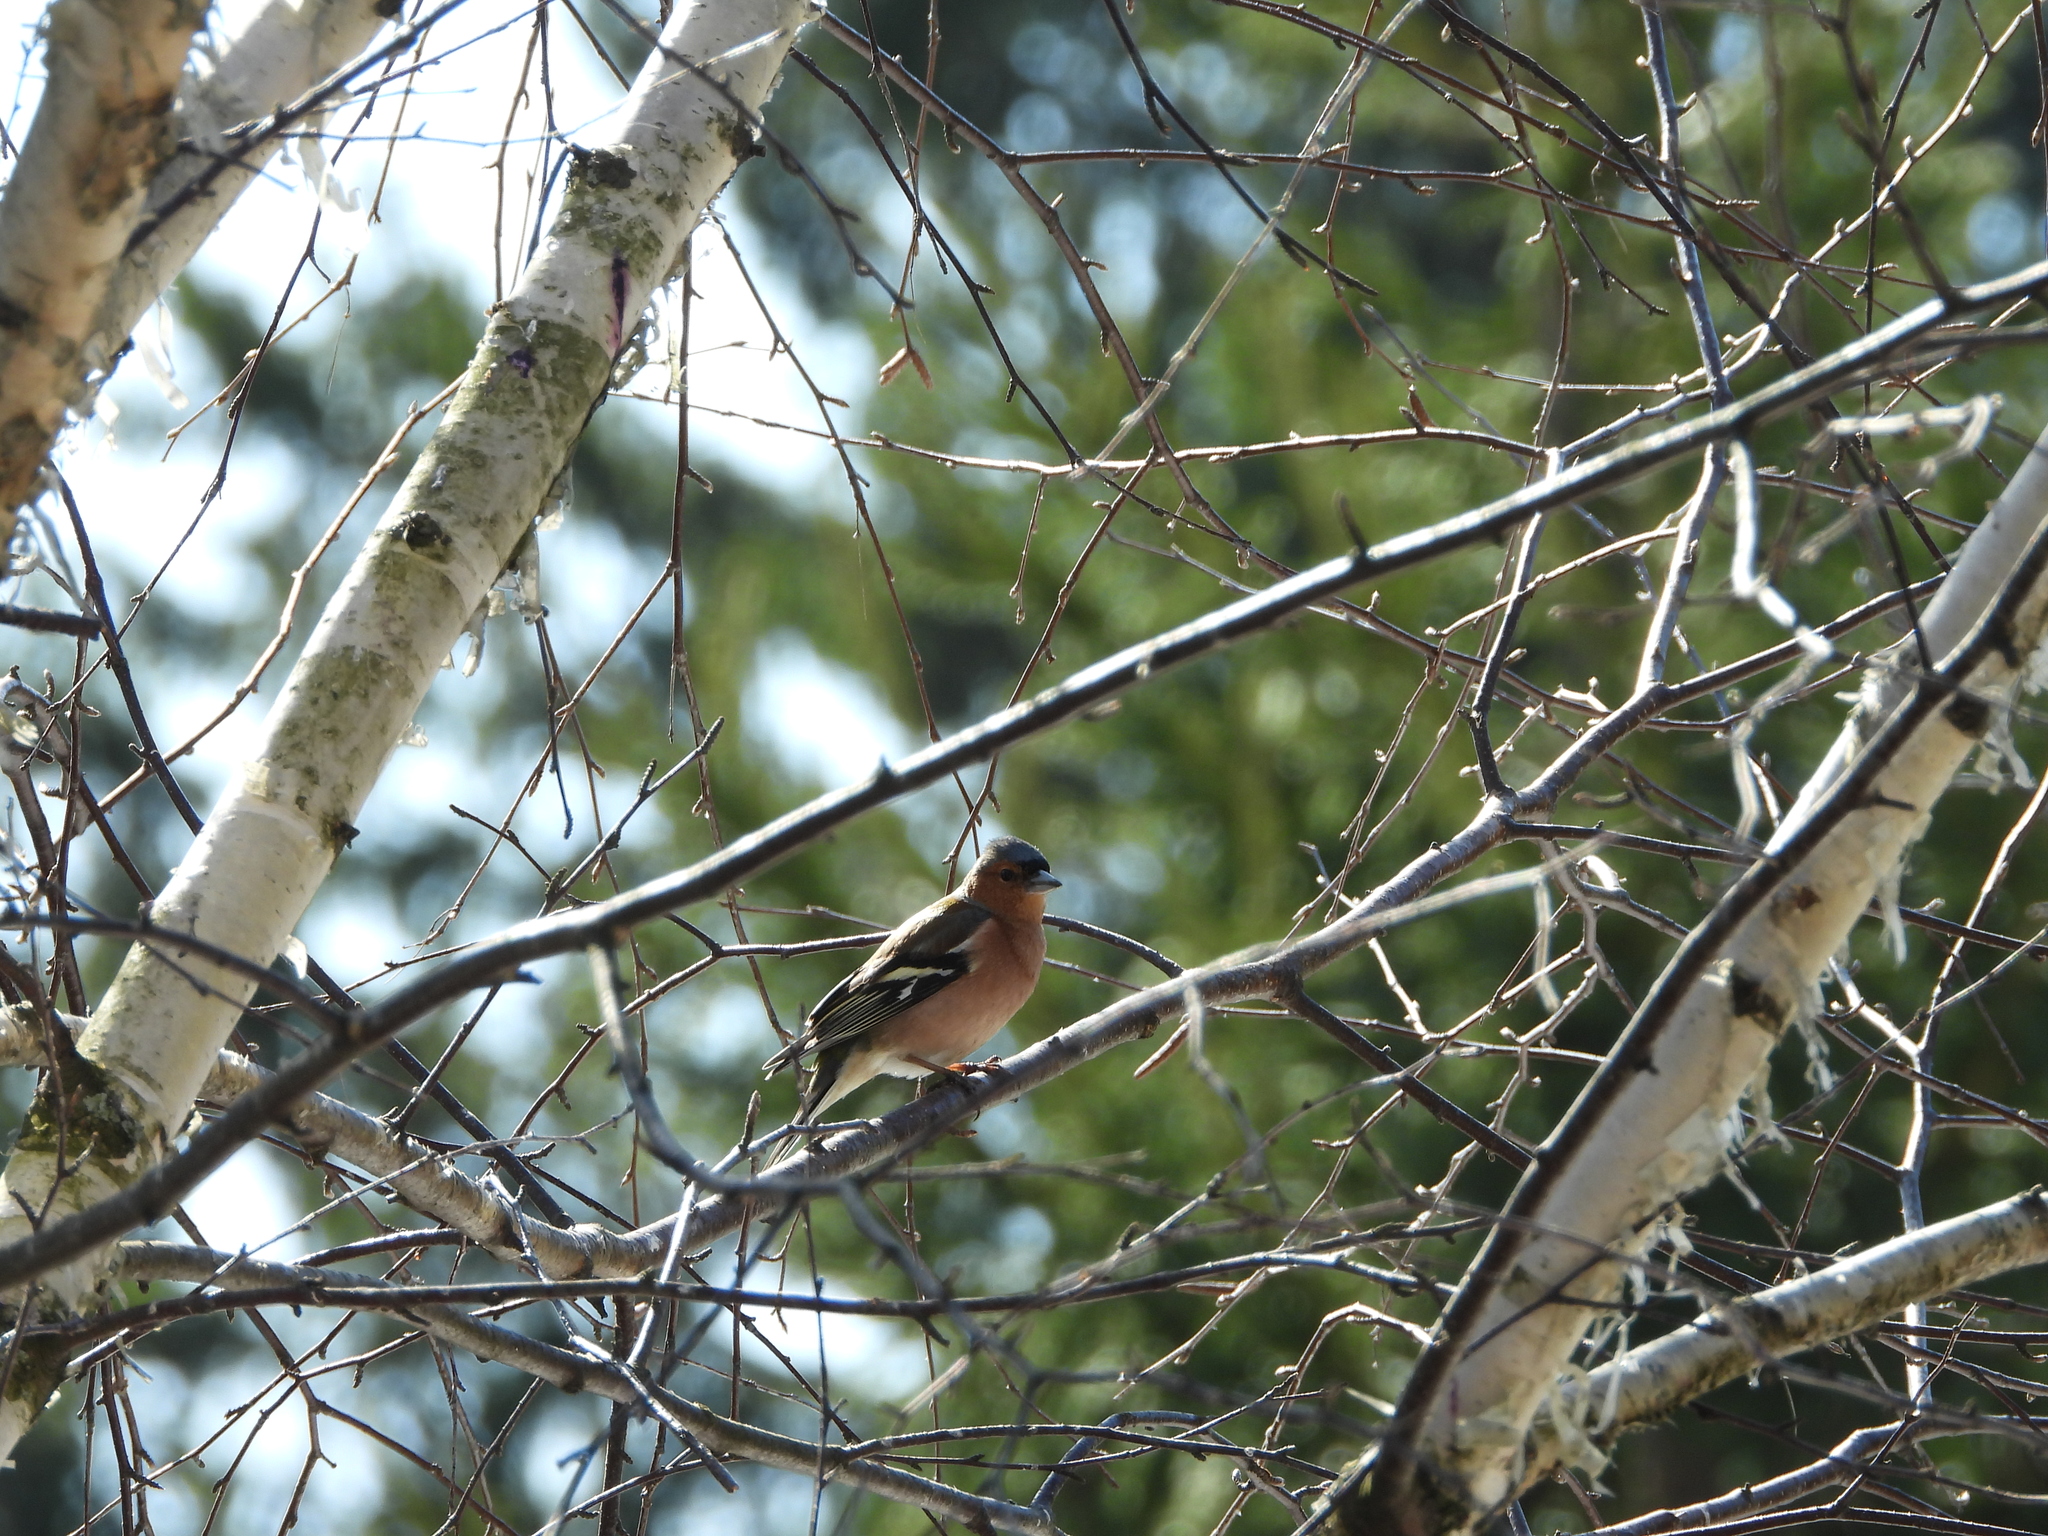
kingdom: Animalia
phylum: Chordata
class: Aves
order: Passeriformes
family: Fringillidae
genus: Fringilla
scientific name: Fringilla coelebs
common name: Common chaffinch
